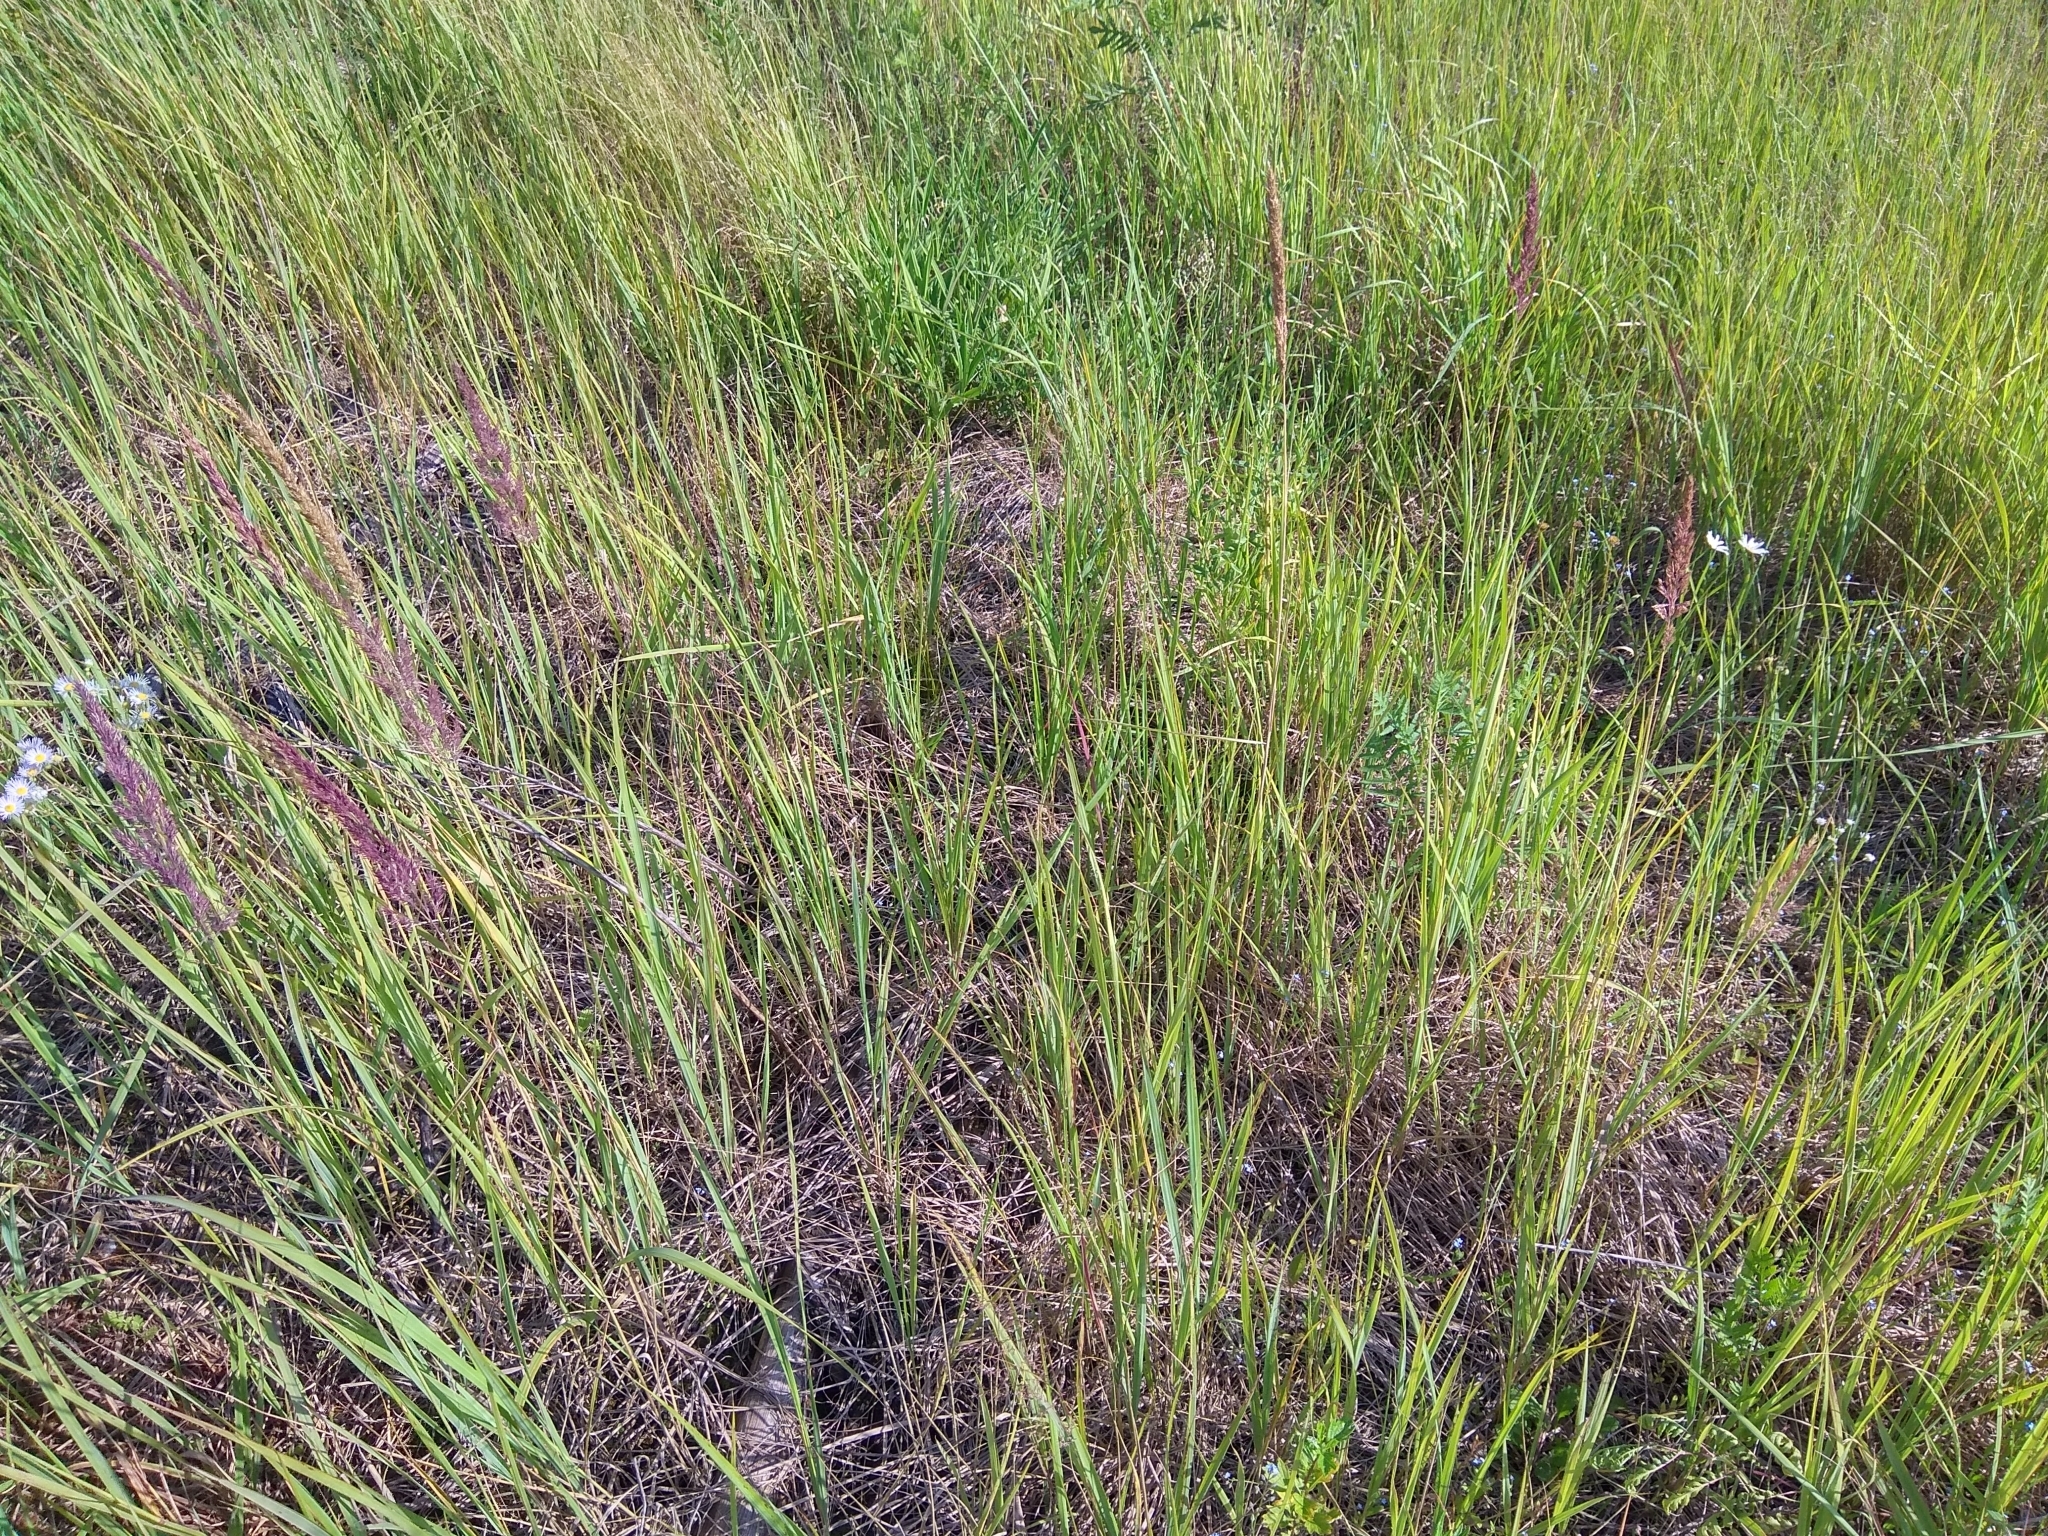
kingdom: Plantae
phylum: Tracheophyta
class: Liliopsida
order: Poales
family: Poaceae
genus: Calamagrostis
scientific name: Calamagrostis epigejos
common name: Wood small-reed
